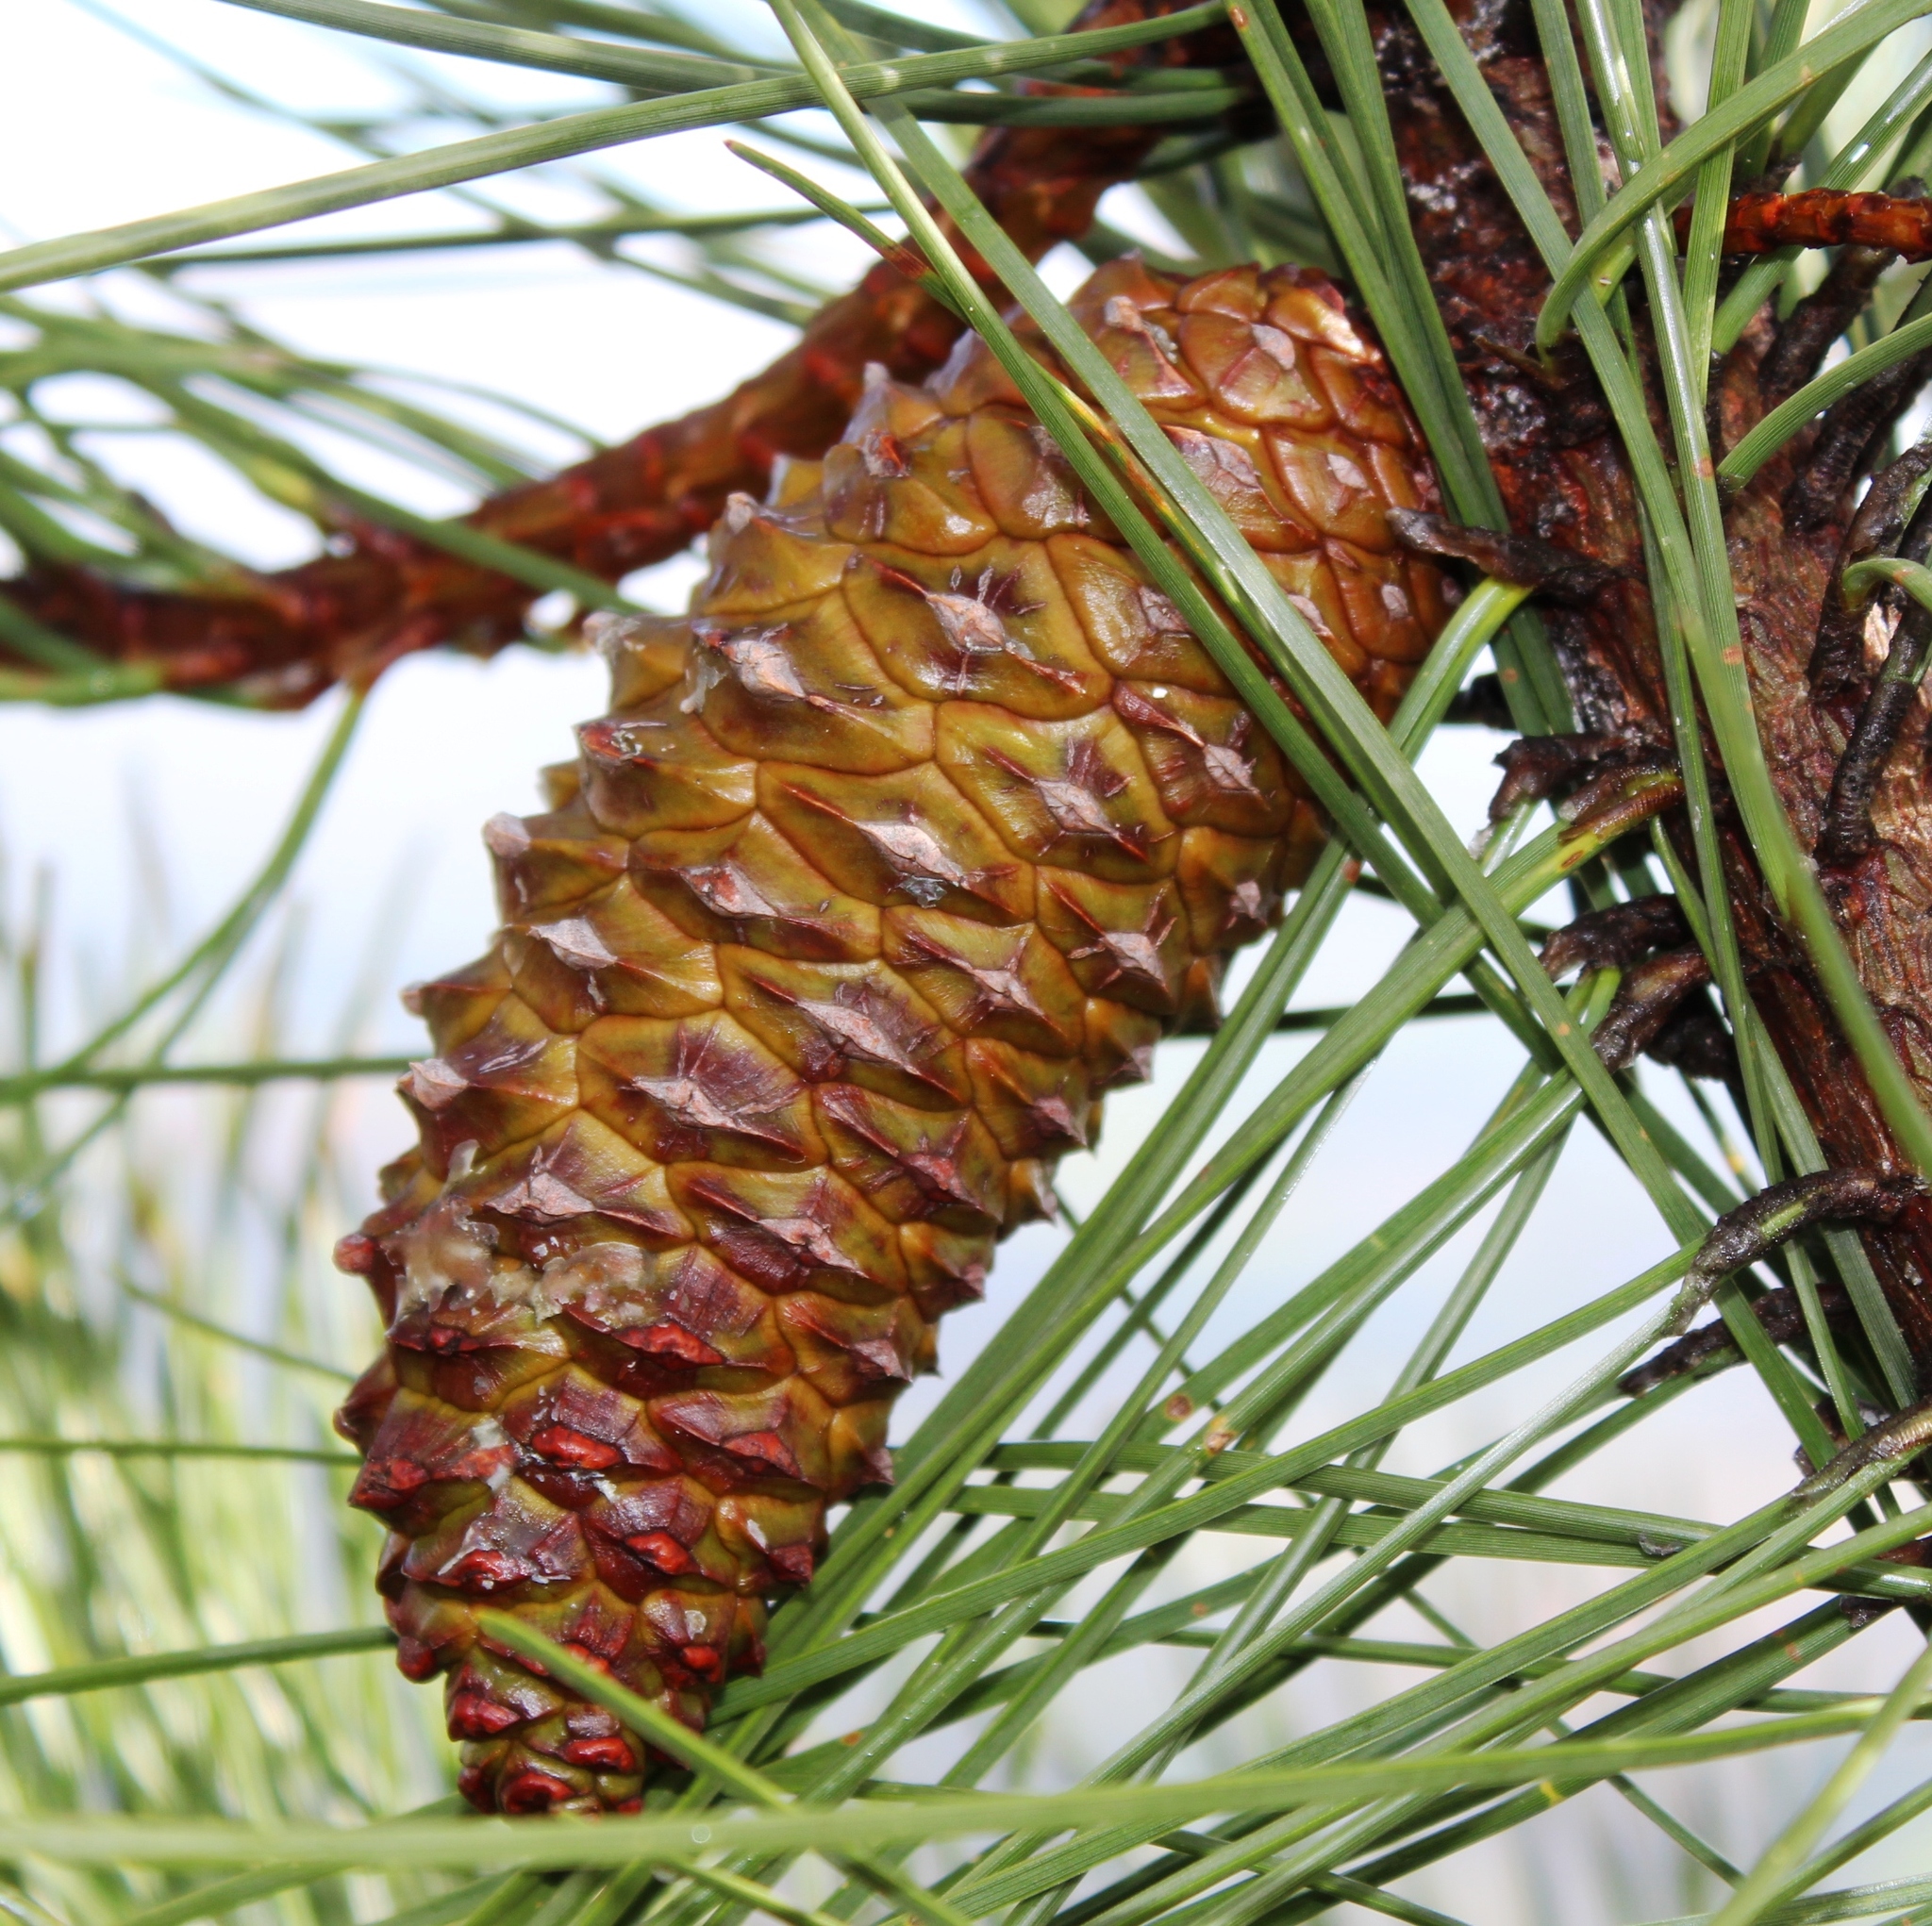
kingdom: Plantae
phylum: Tracheophyta
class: Pinopsida
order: Pinales
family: Pinaceae
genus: Pinus
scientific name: Pinus pinaster
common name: Maritime pine
